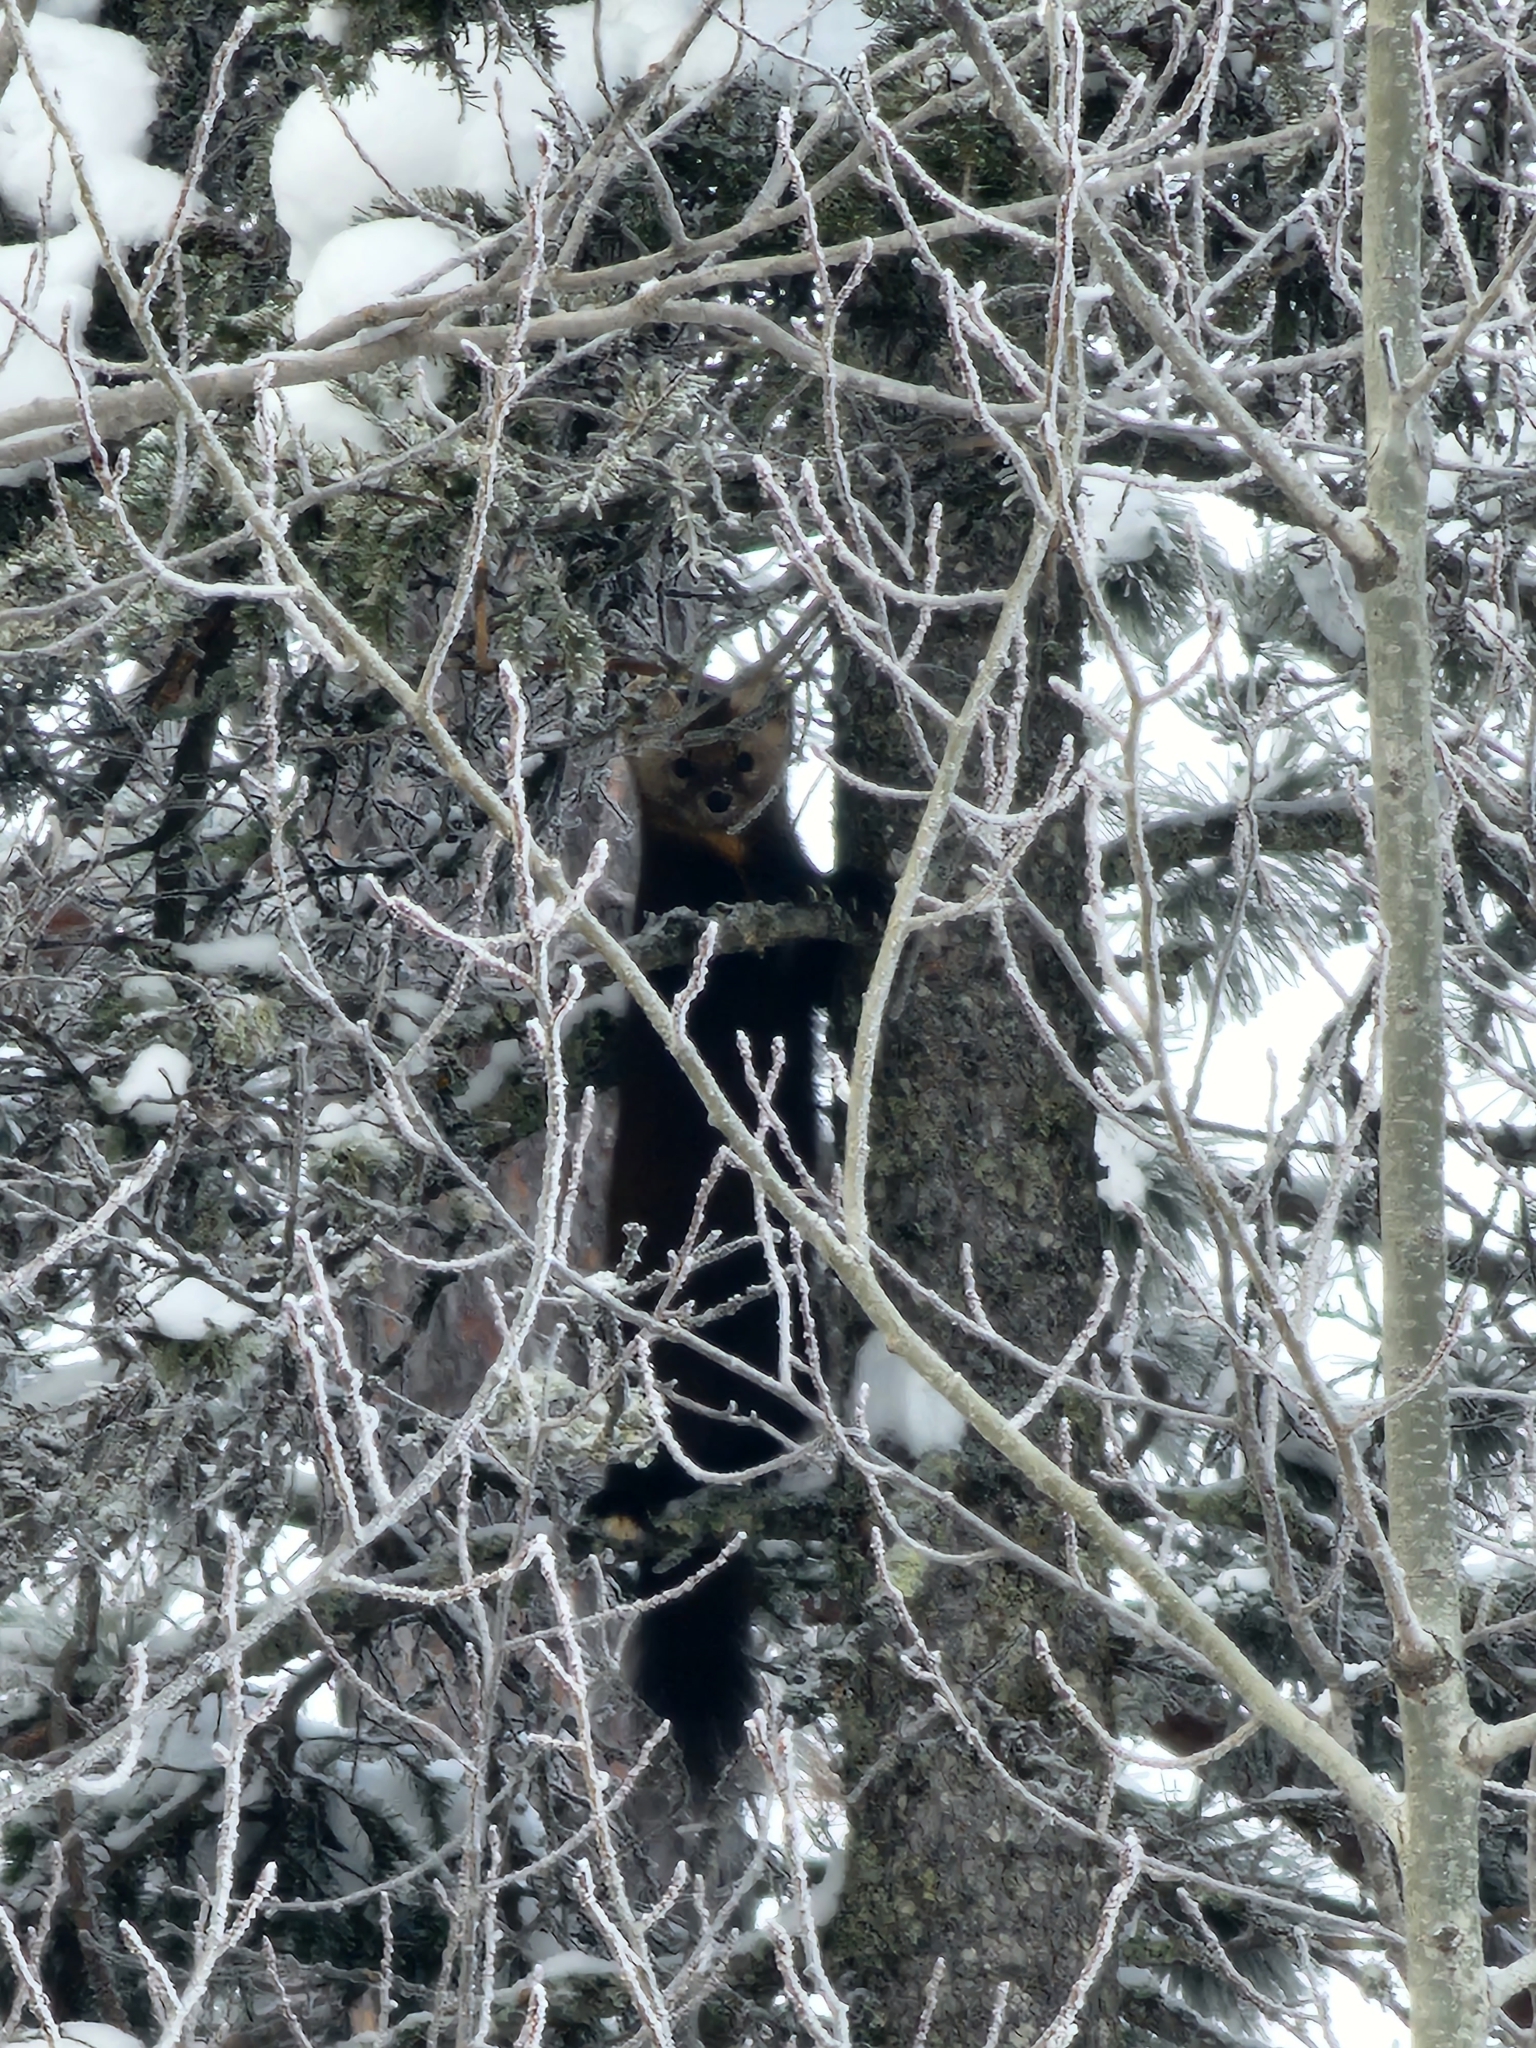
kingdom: Animalia
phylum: Chordata
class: Mammalia
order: Carnivora
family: Mustelidae
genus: Martes
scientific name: Martes americana
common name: American marten
